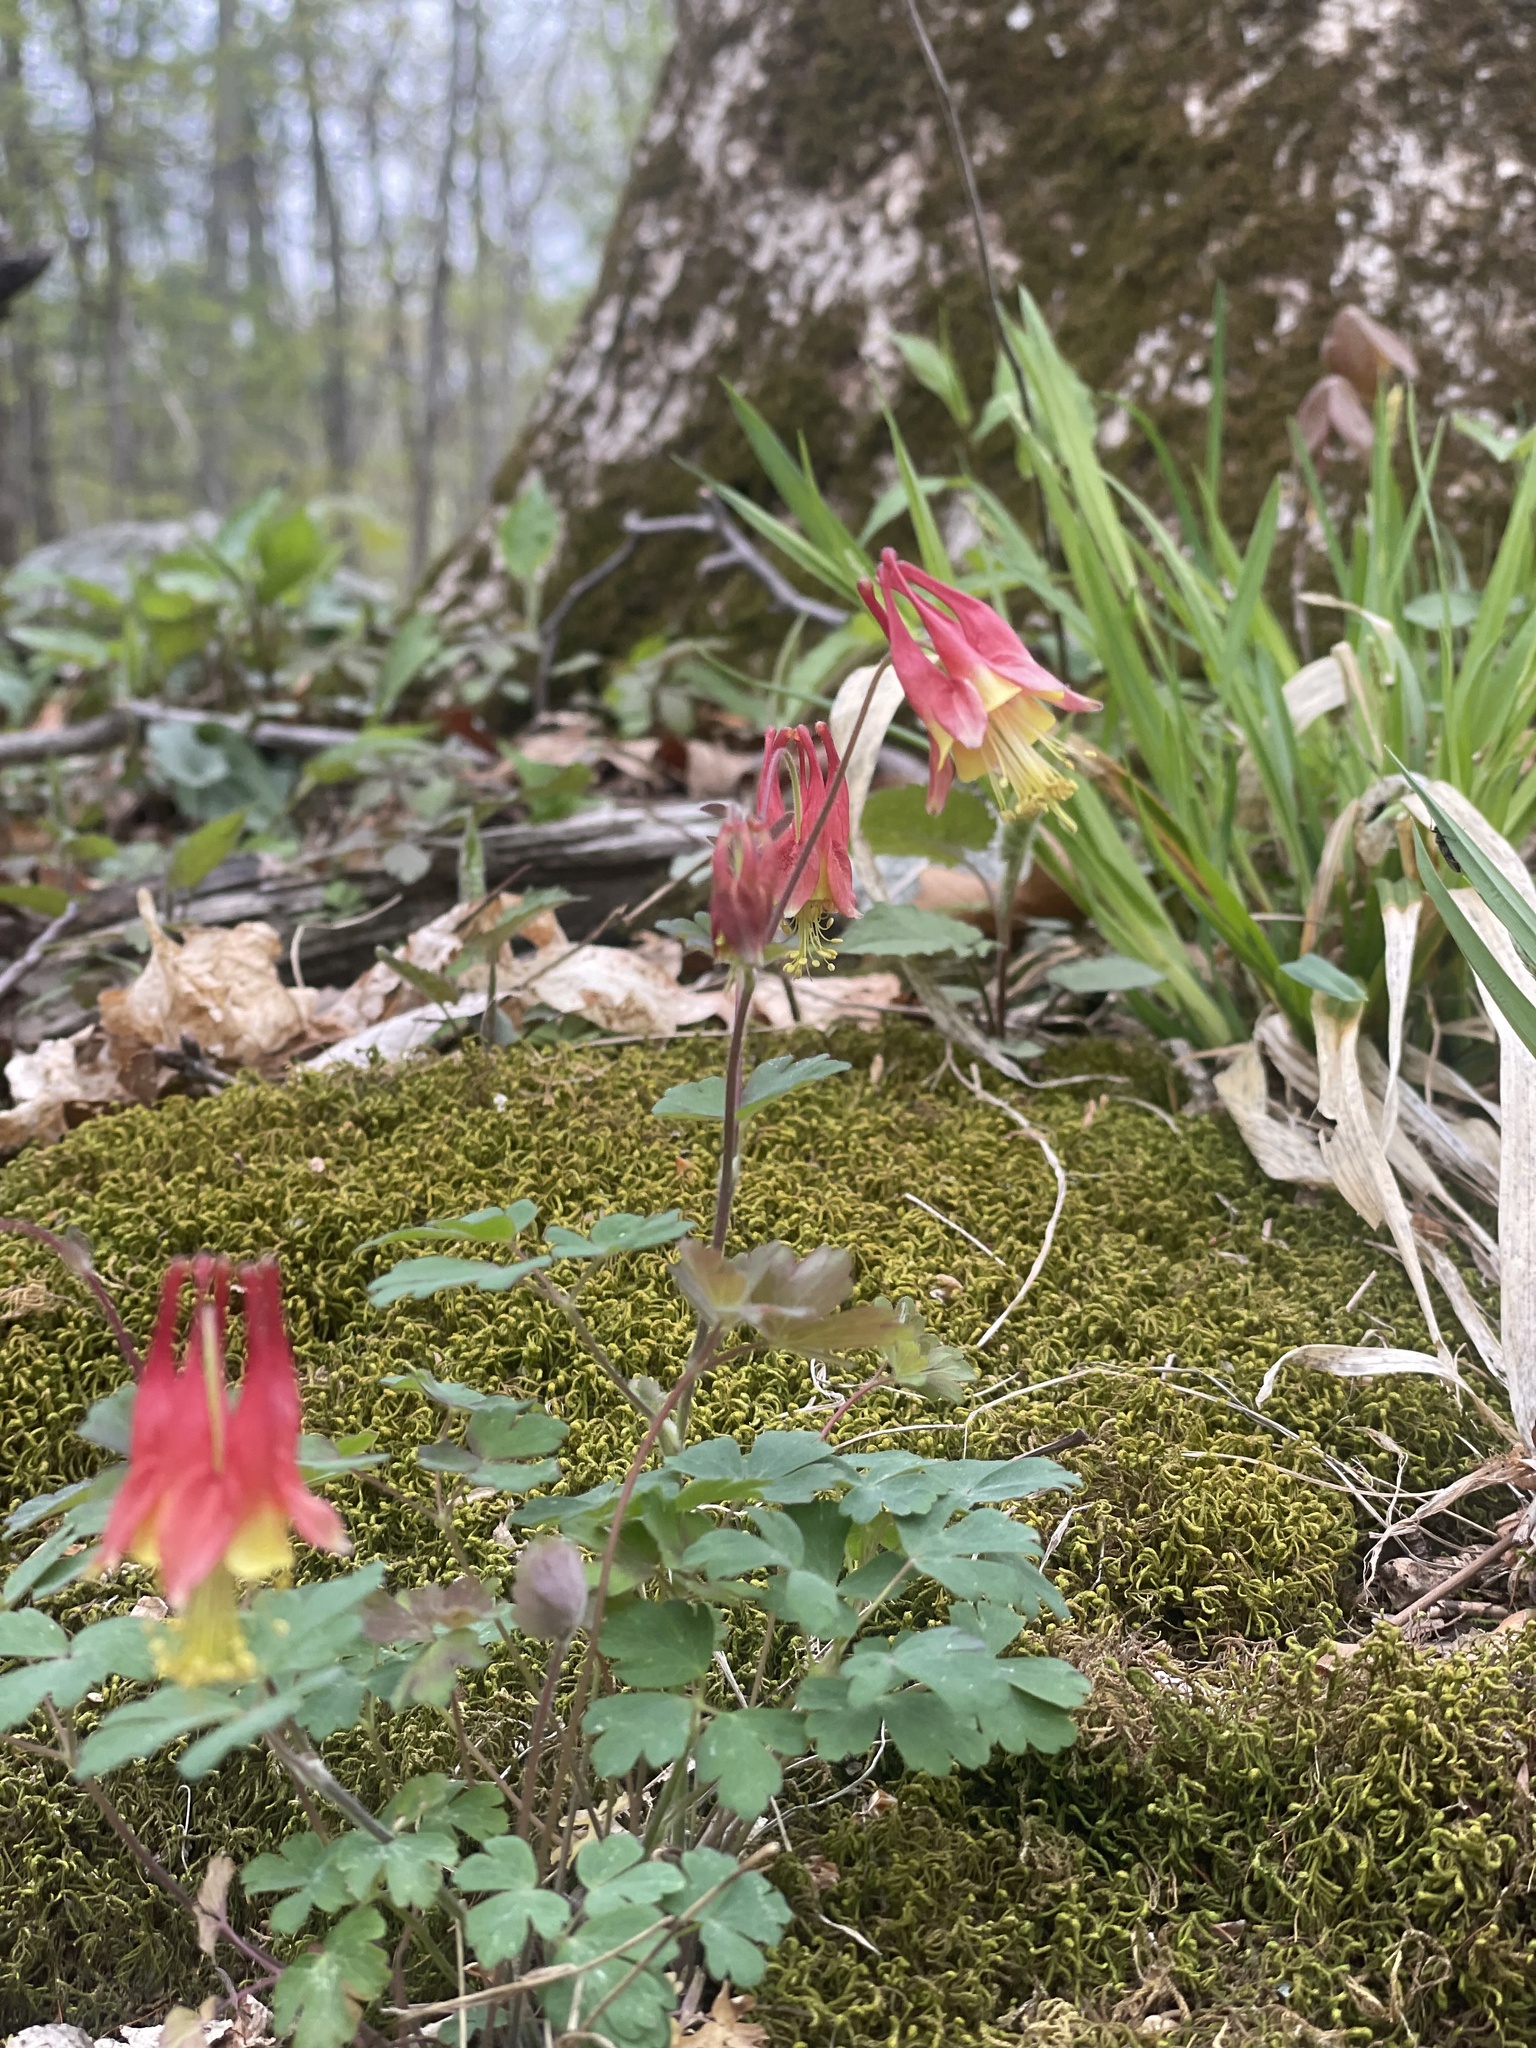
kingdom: Plantae
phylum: Tracheophyta
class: Magnoliopsida
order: Ranunculales
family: Ranunculaceae
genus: Aquilegia
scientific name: Aquilegia canadensis
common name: American columbine
